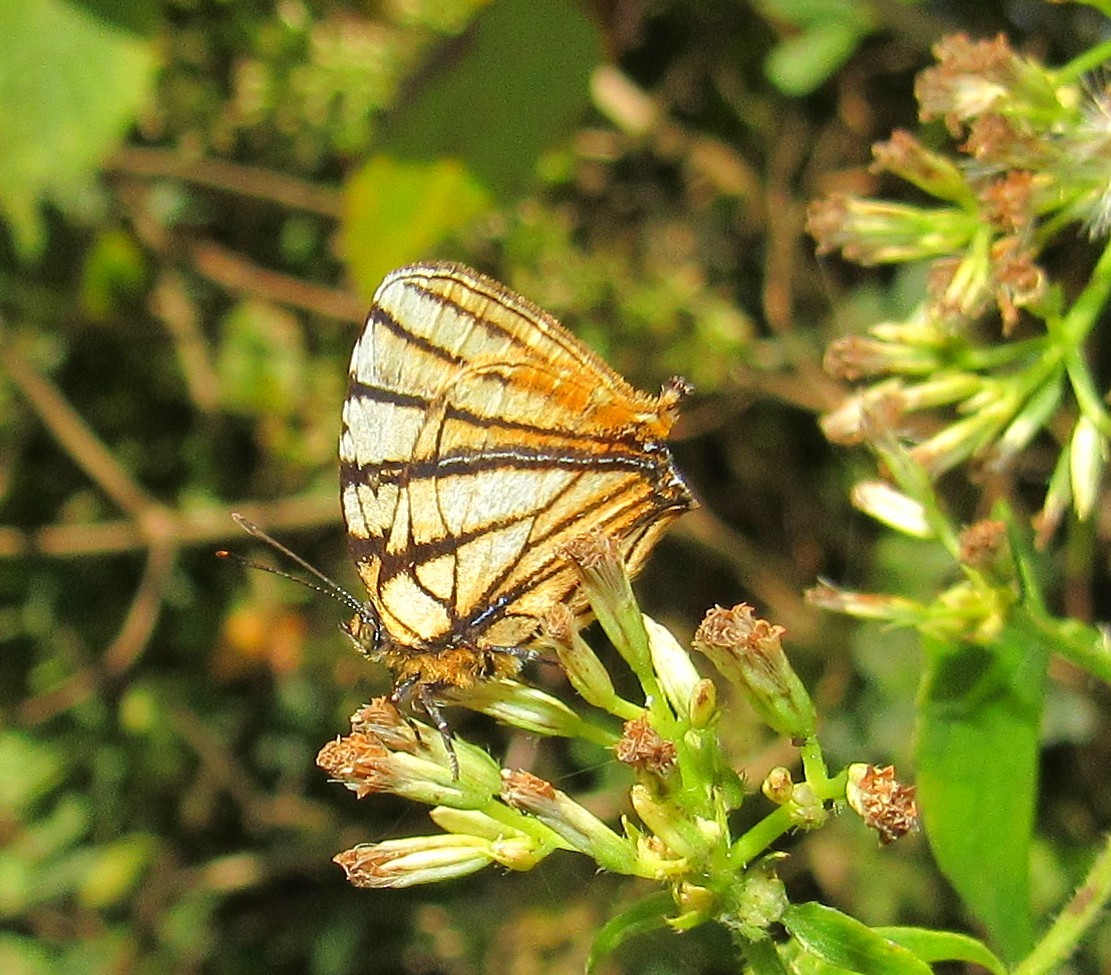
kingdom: Animalia
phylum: Arthropoda
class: Insecta
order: Lepidoptera
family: Lycaenidae
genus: Arawacus
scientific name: Arawacus melibaeus
